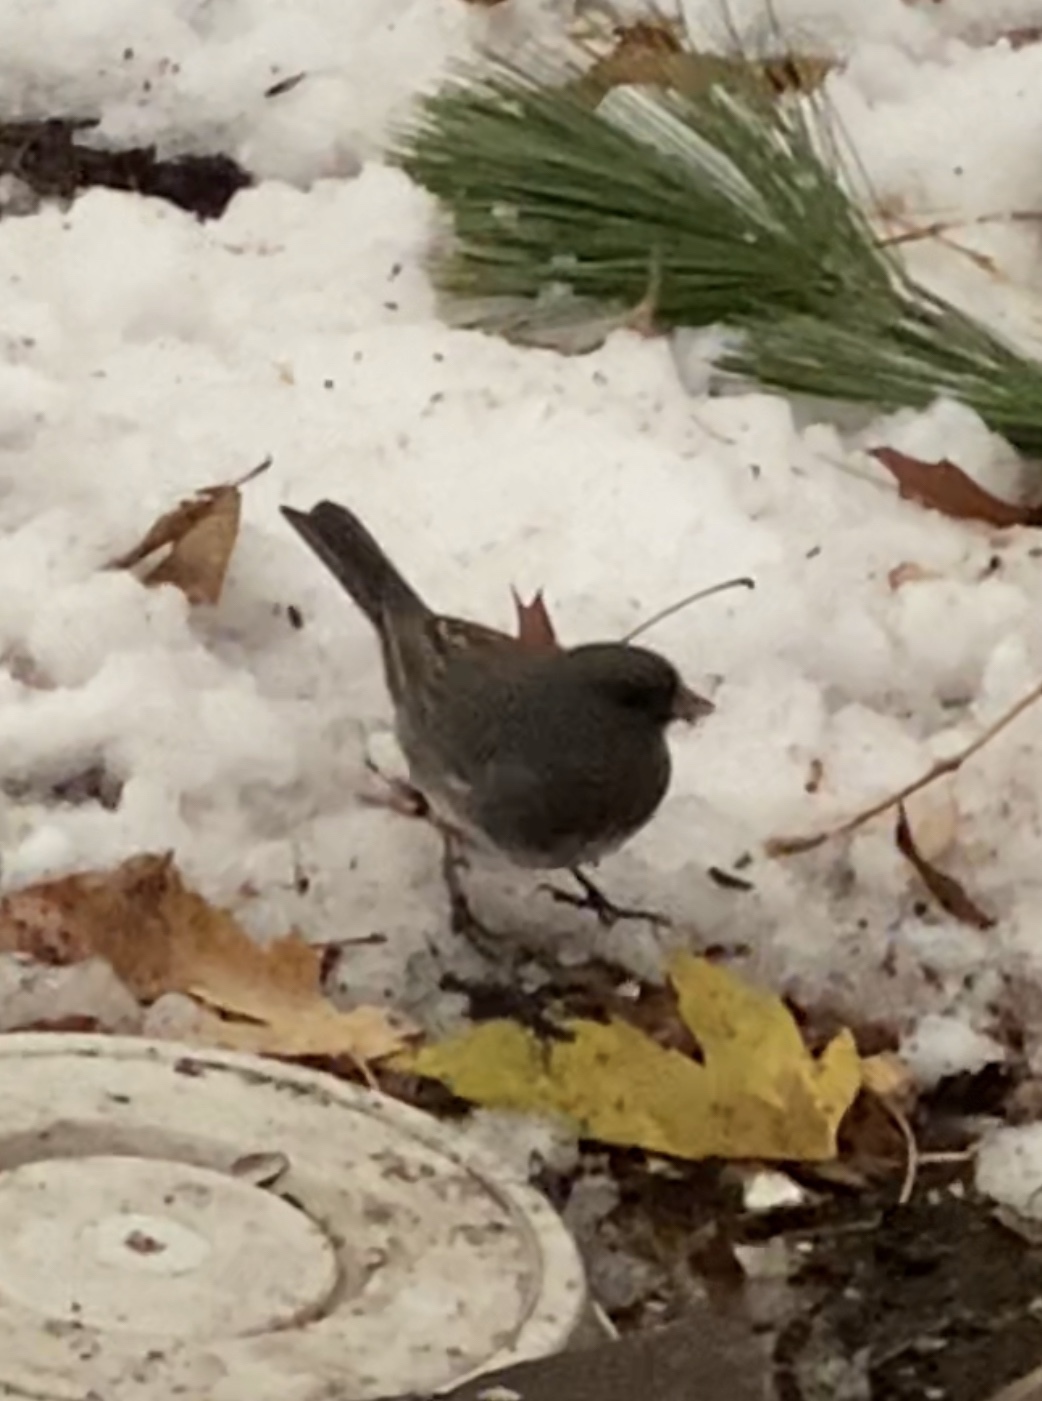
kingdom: Animalia
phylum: Chordata
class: Aves
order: Passeriformes
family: Passerellidae
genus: Junco
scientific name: Junco hyemalis
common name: Dark-eyed junco
